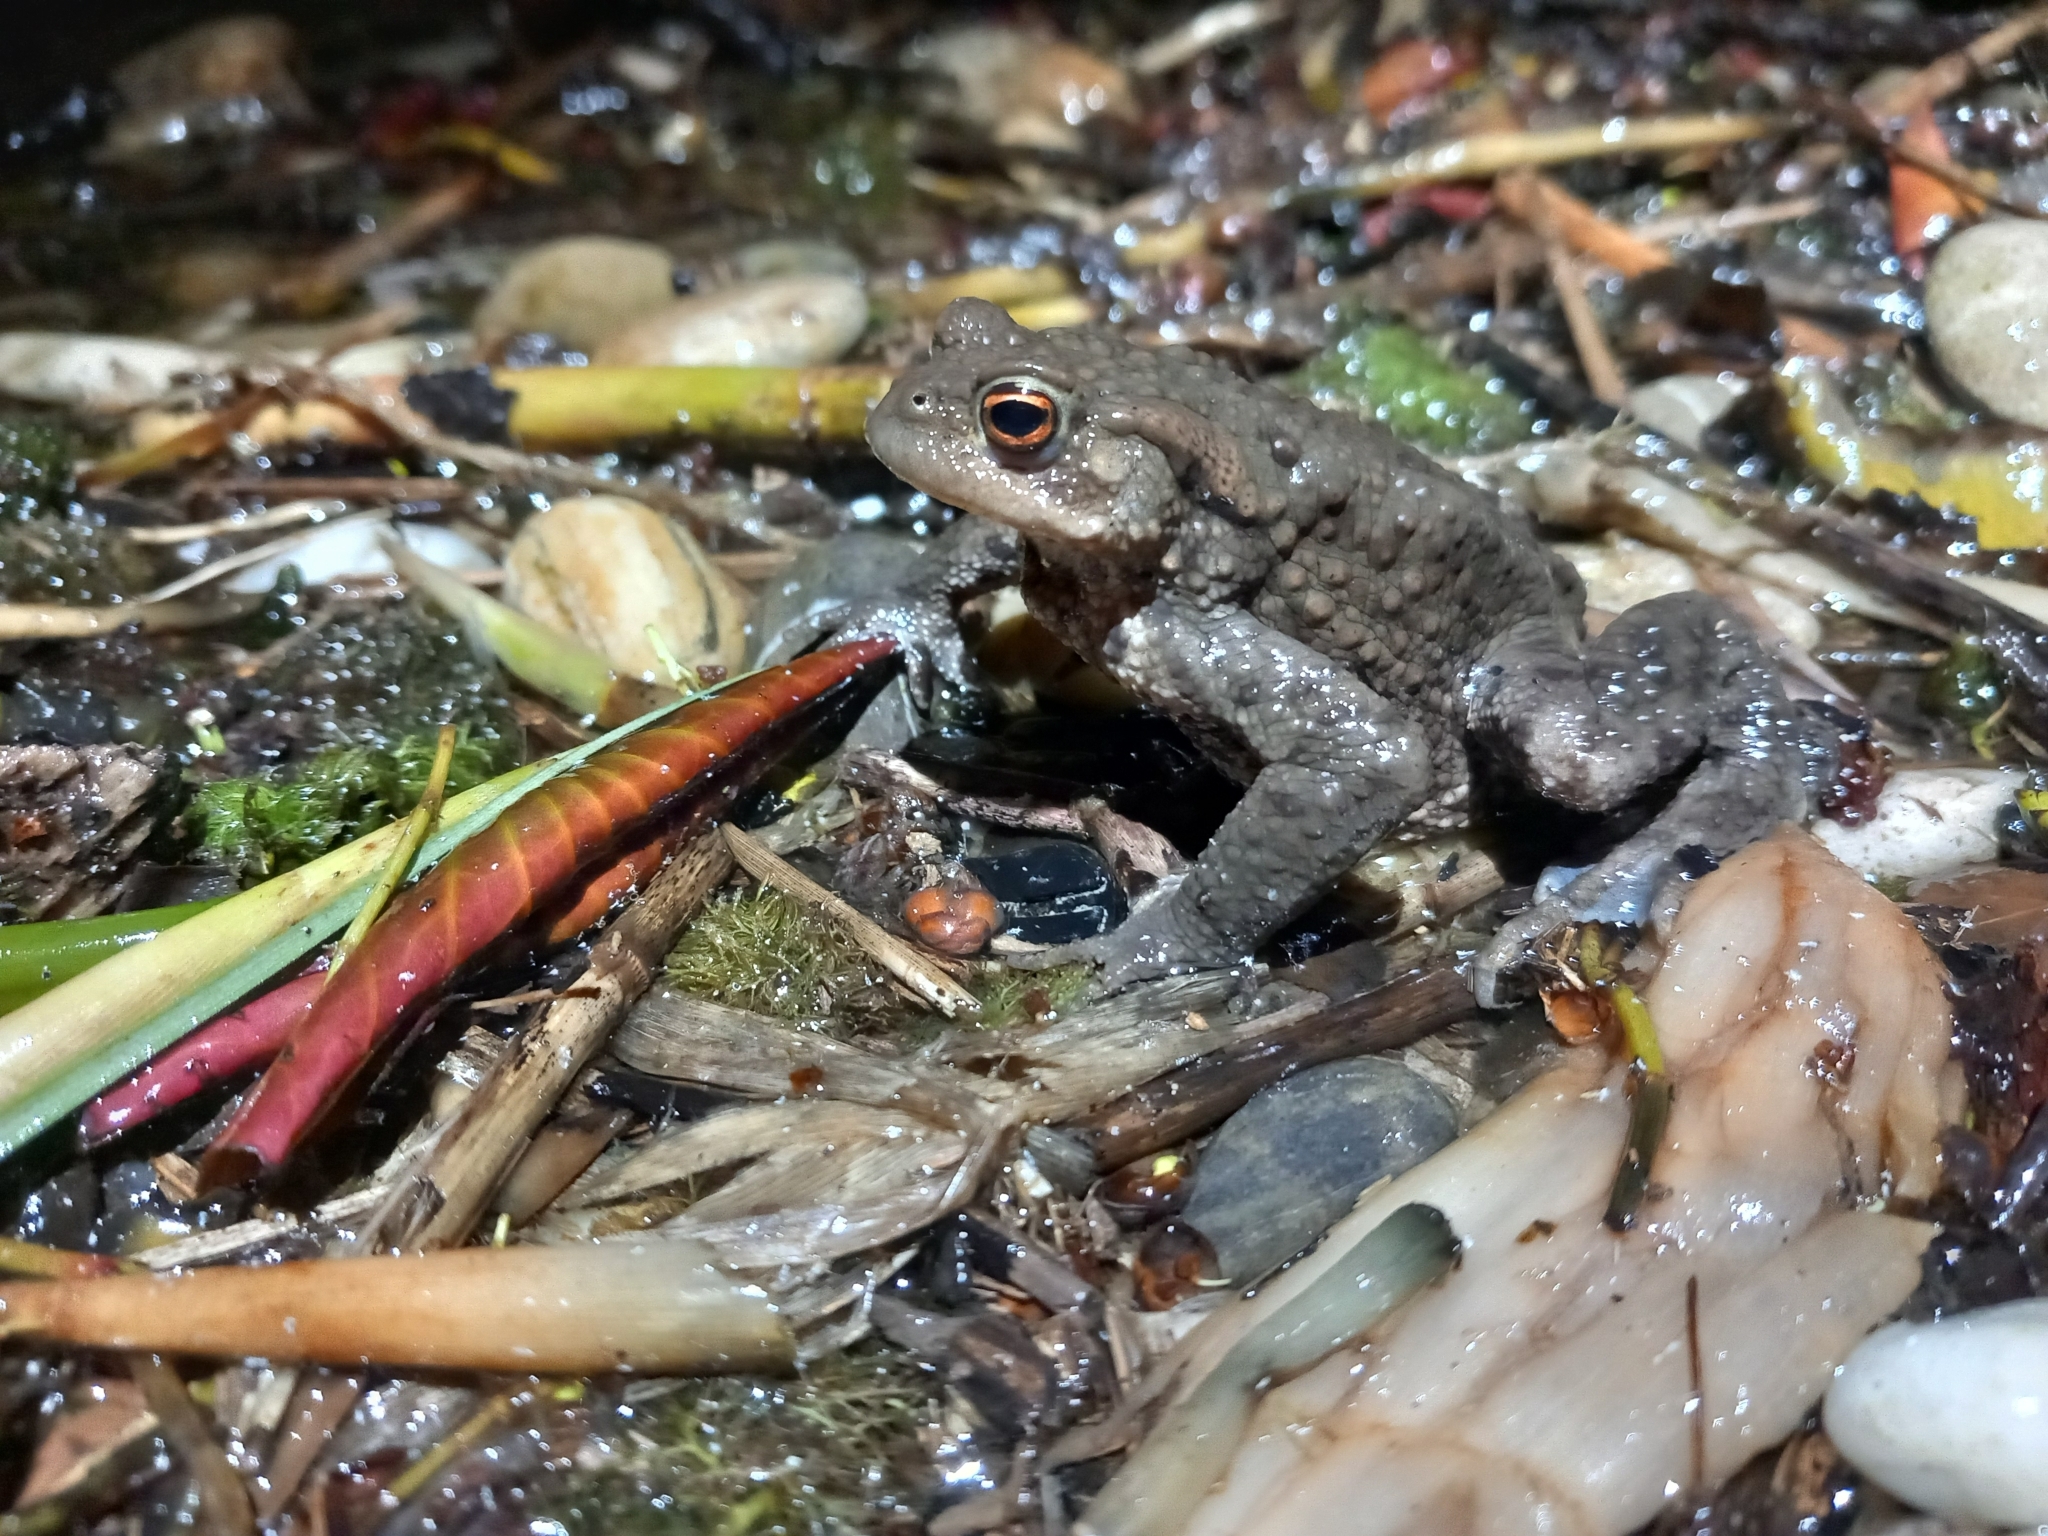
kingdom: Animalia
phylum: Chordata
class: Amphibia
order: Anura
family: Bufonidae
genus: Bufo
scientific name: Bufo bufo
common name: Common toad
